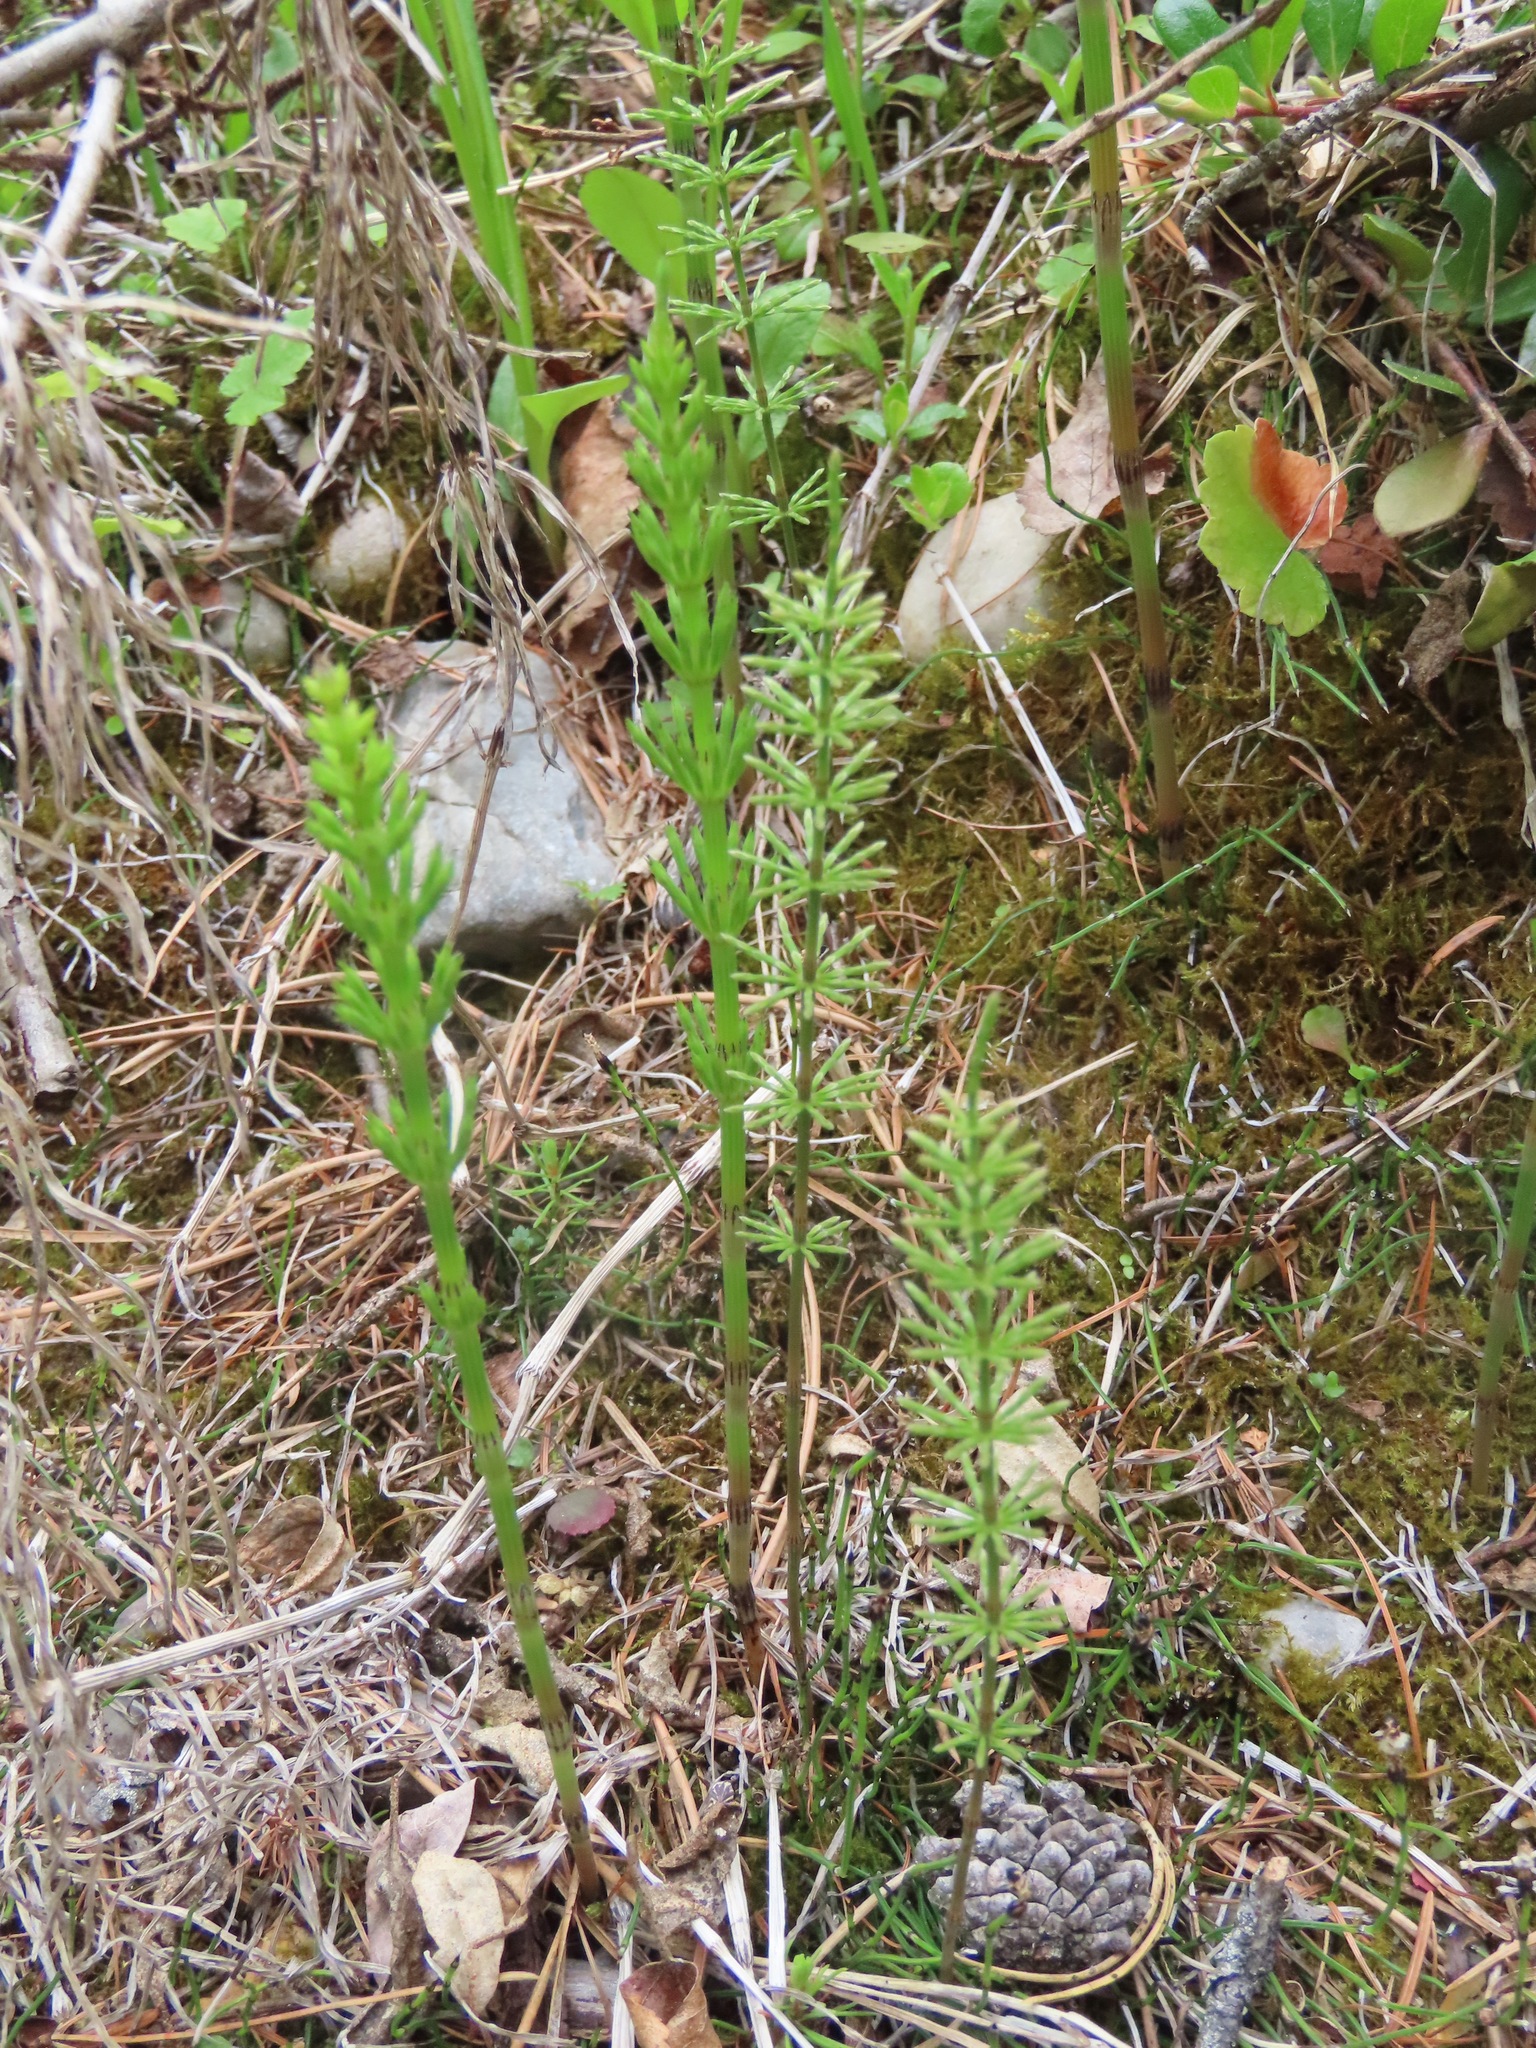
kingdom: Plantae
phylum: Tracheophyta
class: Polypodiopsida
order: Equisetales
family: Equisetaceae
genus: Equisetum
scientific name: Equisetum arvense
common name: Field horsetail
